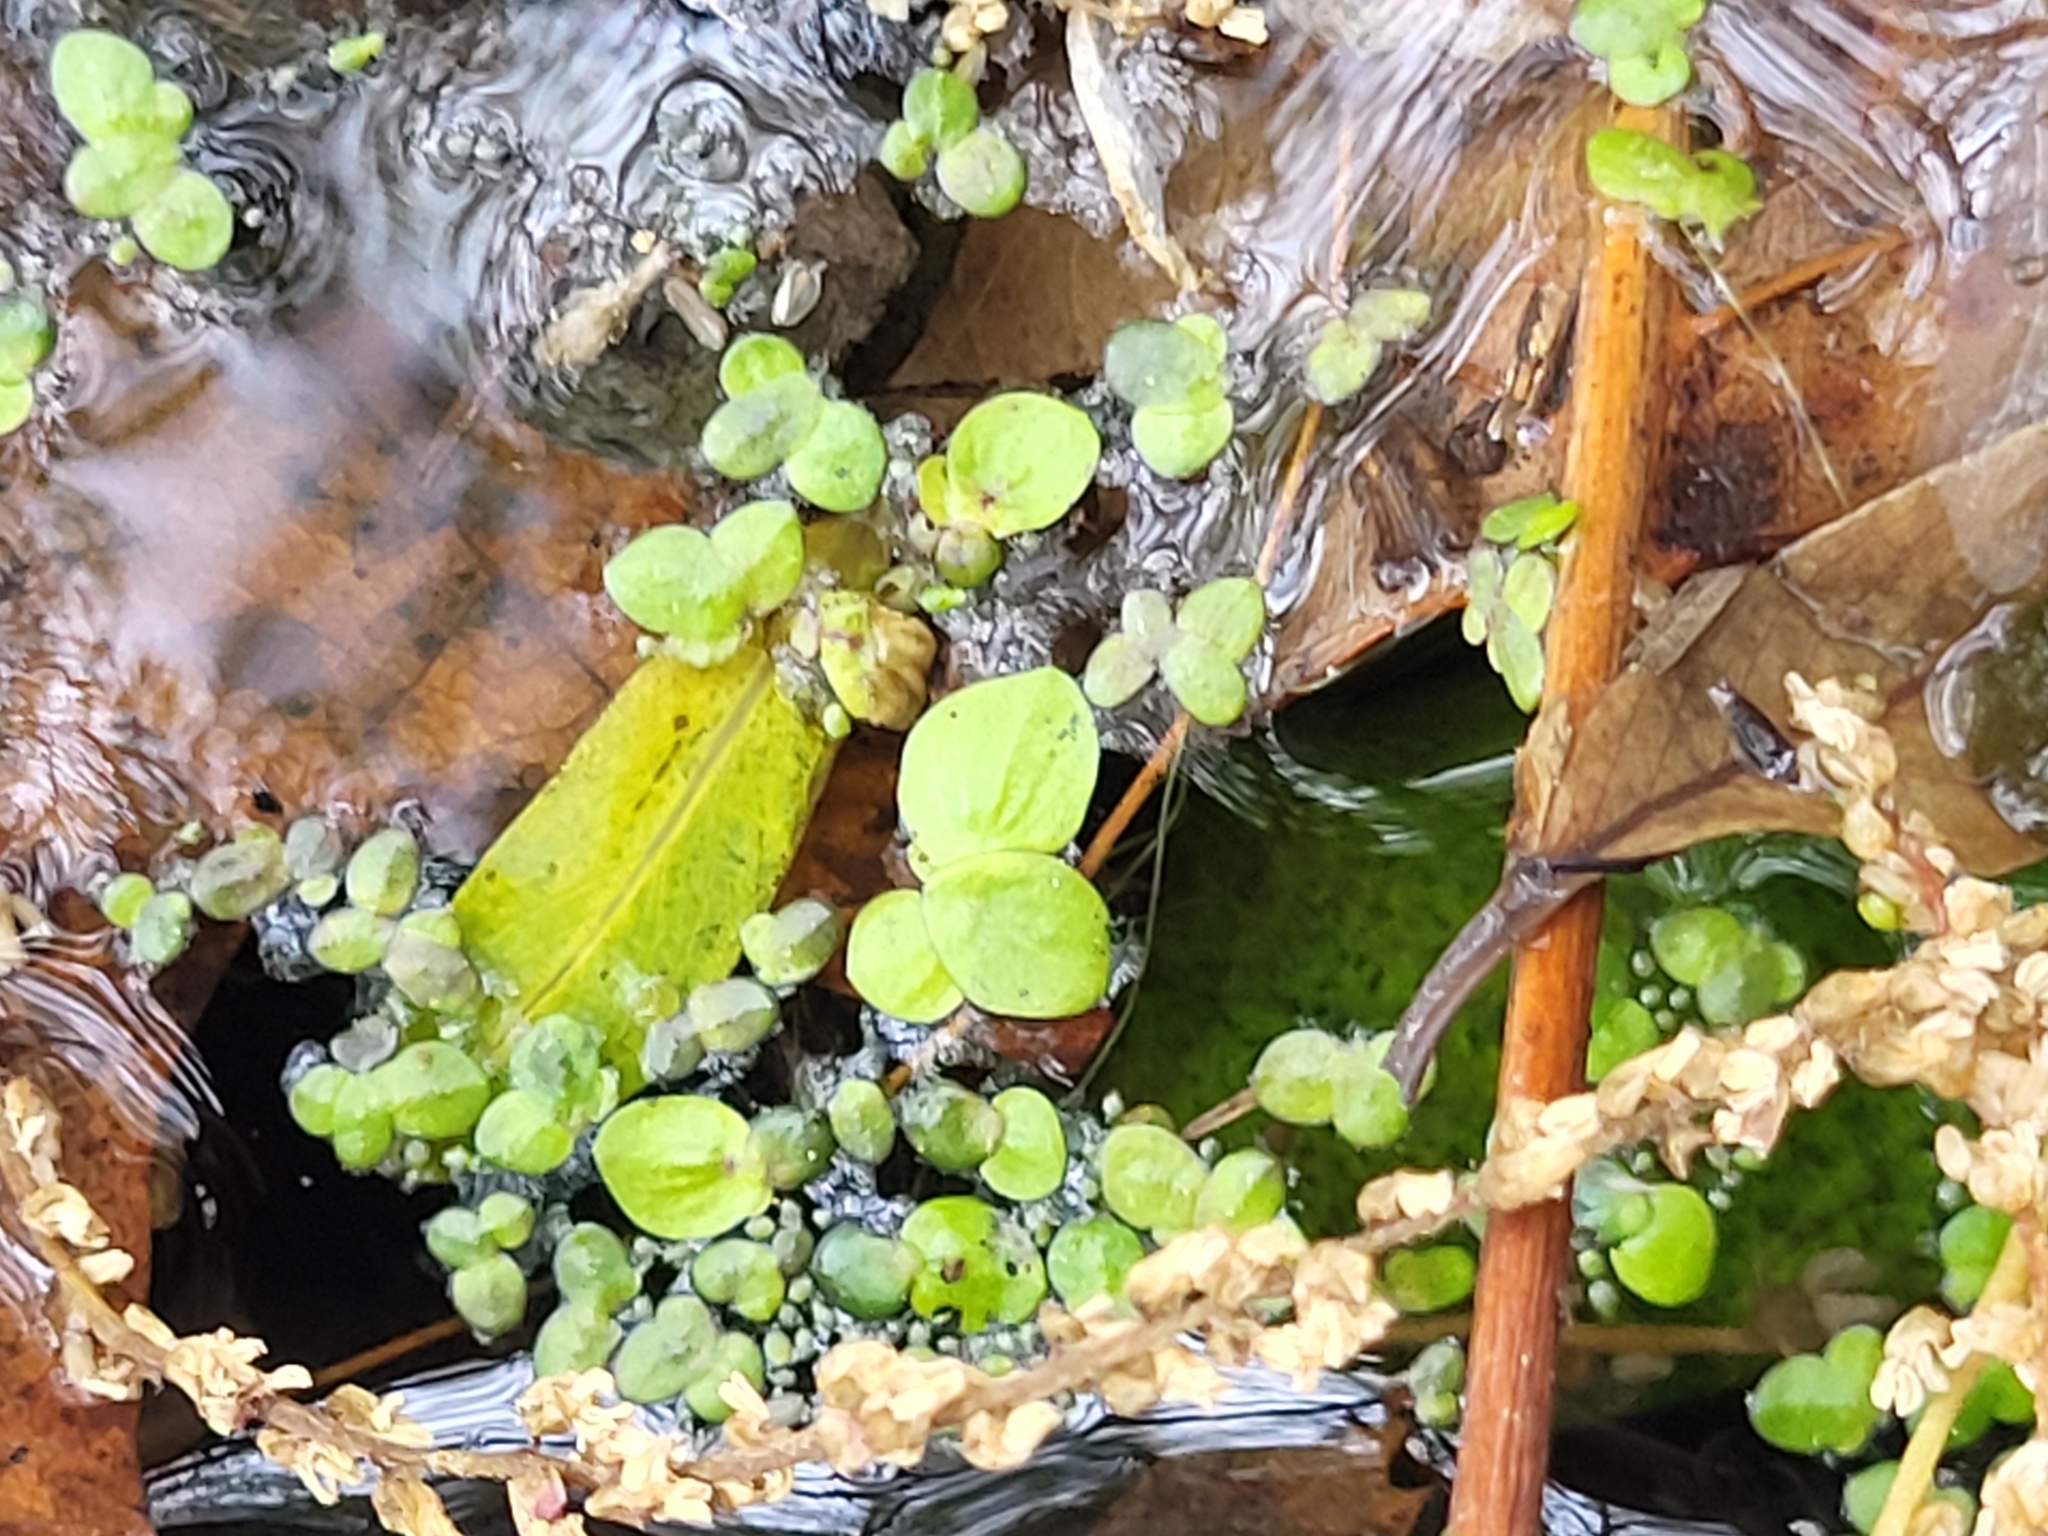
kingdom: Plantae
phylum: Tracheophyta
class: Liliopsida
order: Alismatales
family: Araceae
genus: Spirodela
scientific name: Spirodela polyrhiza
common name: Great duckweed
